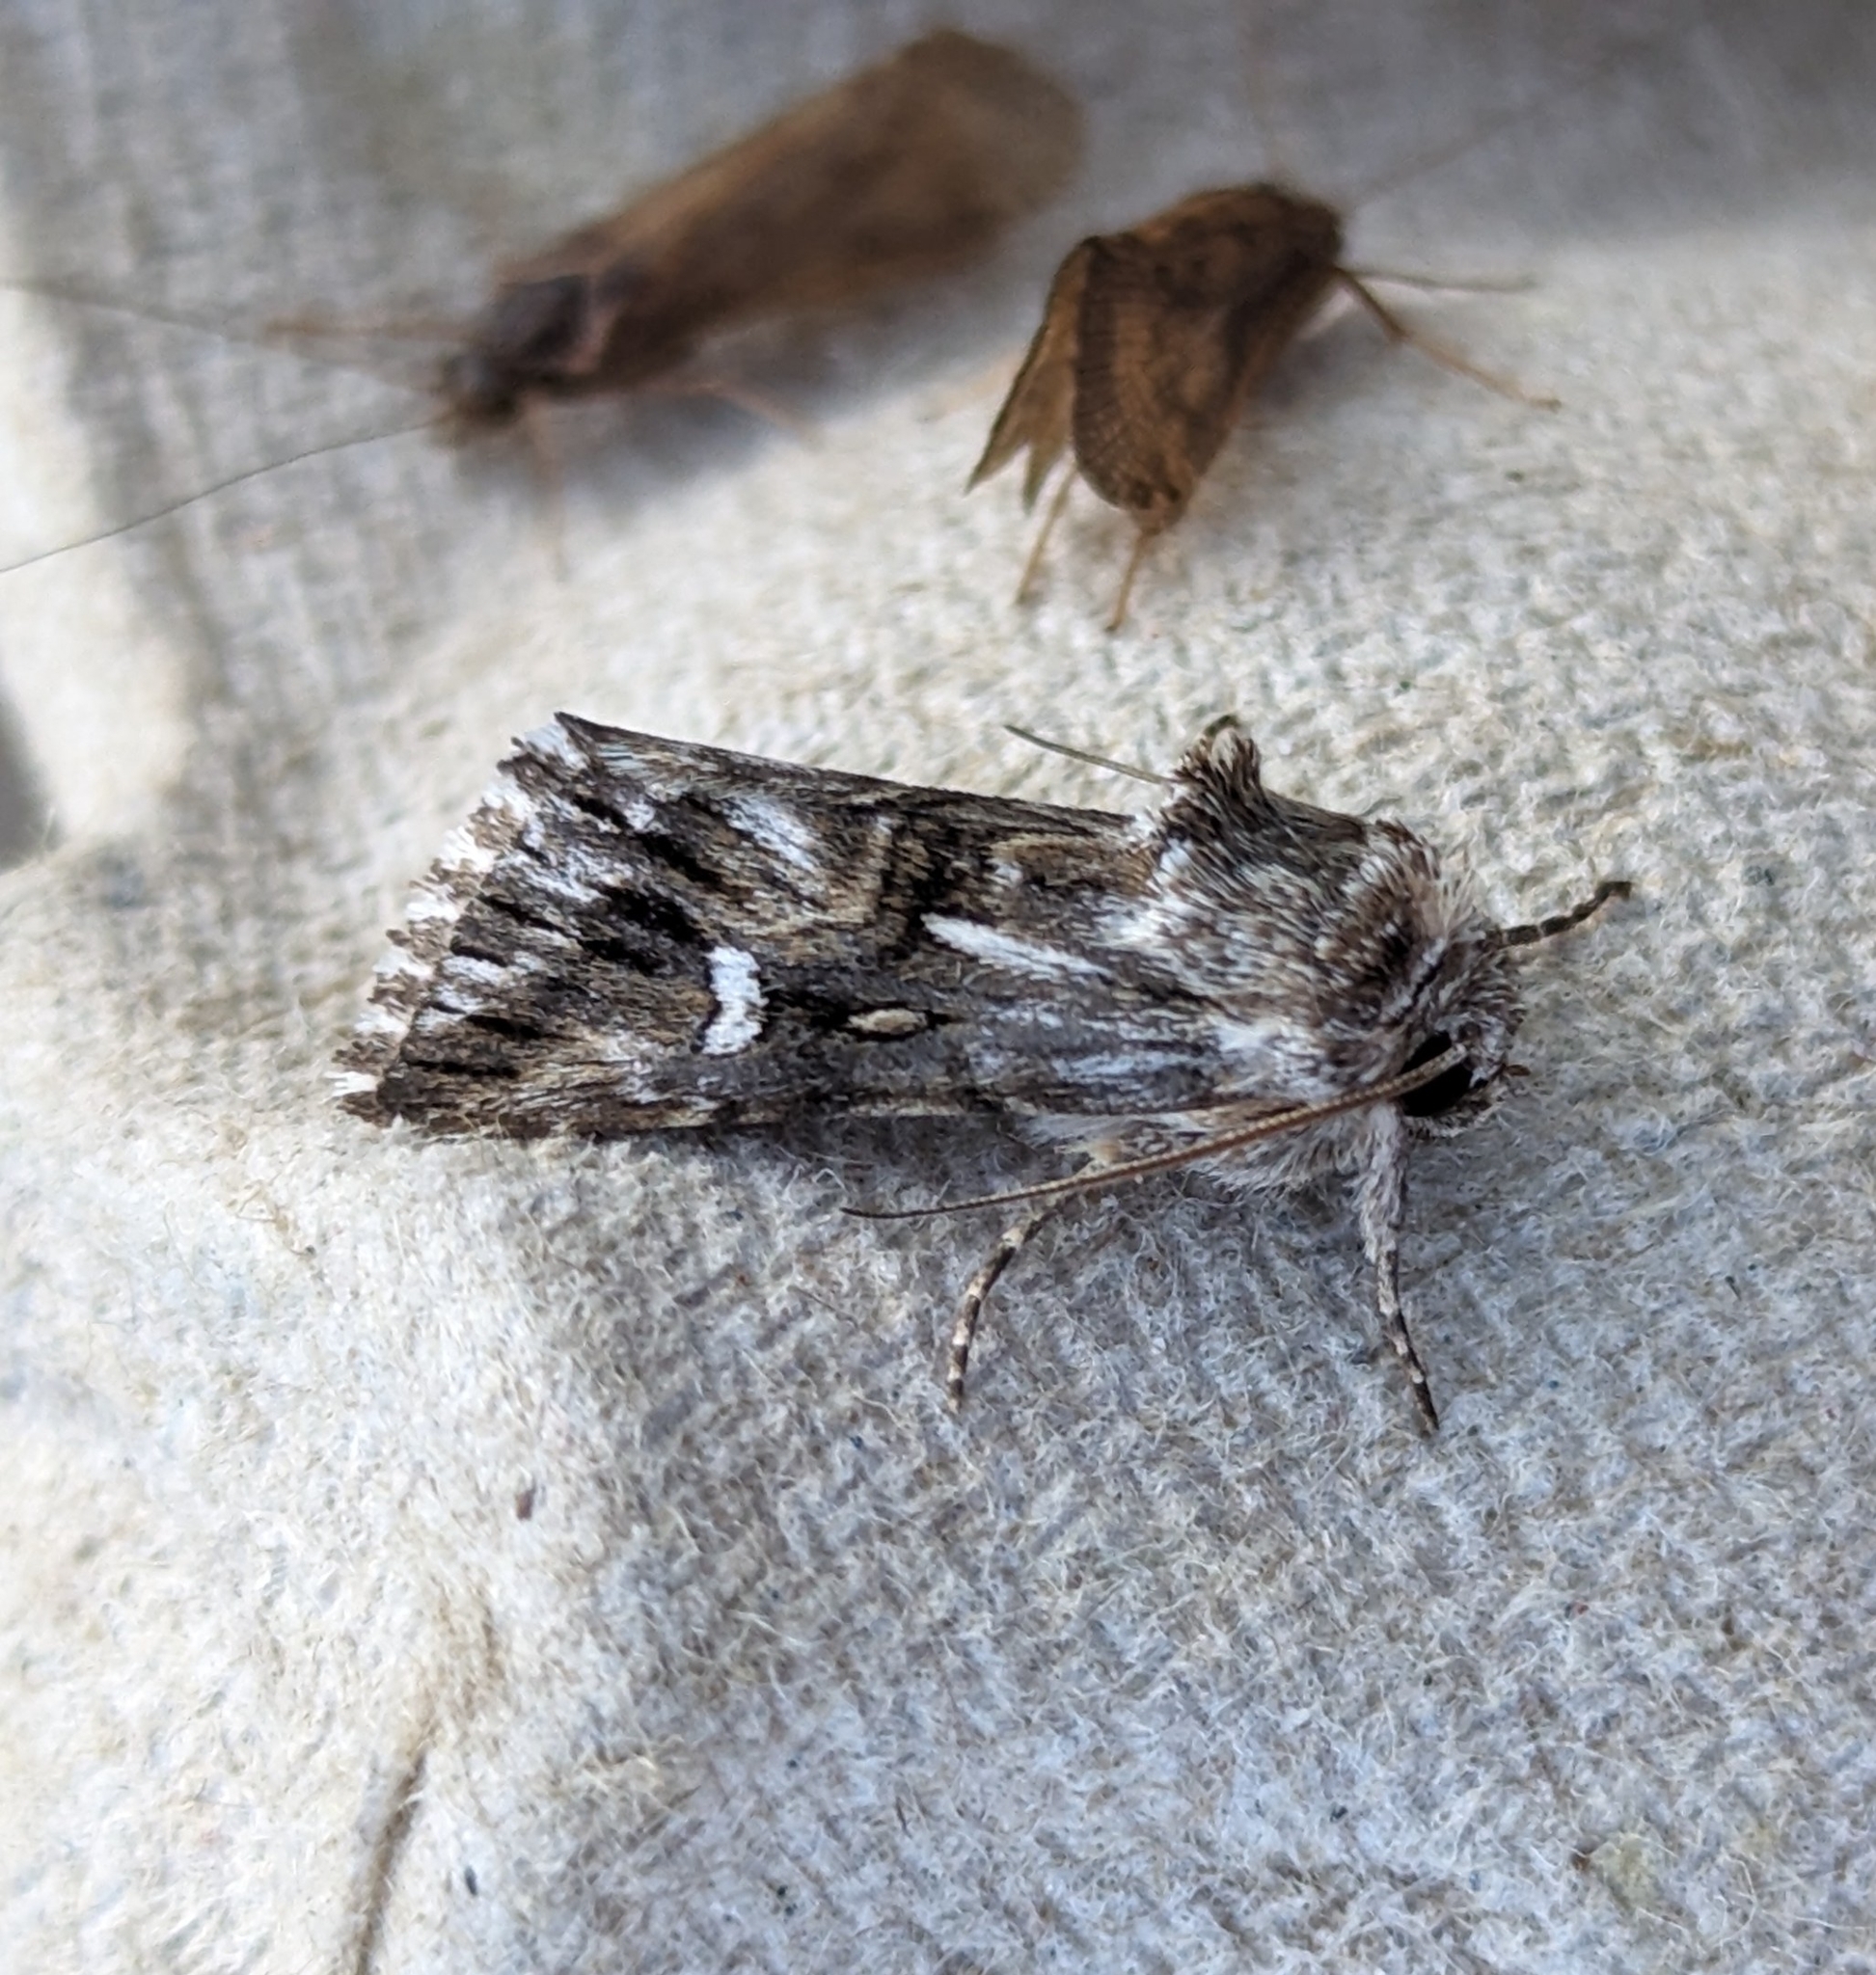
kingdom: Animalia
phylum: Arthropoda
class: Insecta
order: Lepidoptera
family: Noctuidae
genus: Calophasia
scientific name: Calophasia lunula
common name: Toadflax brocade
